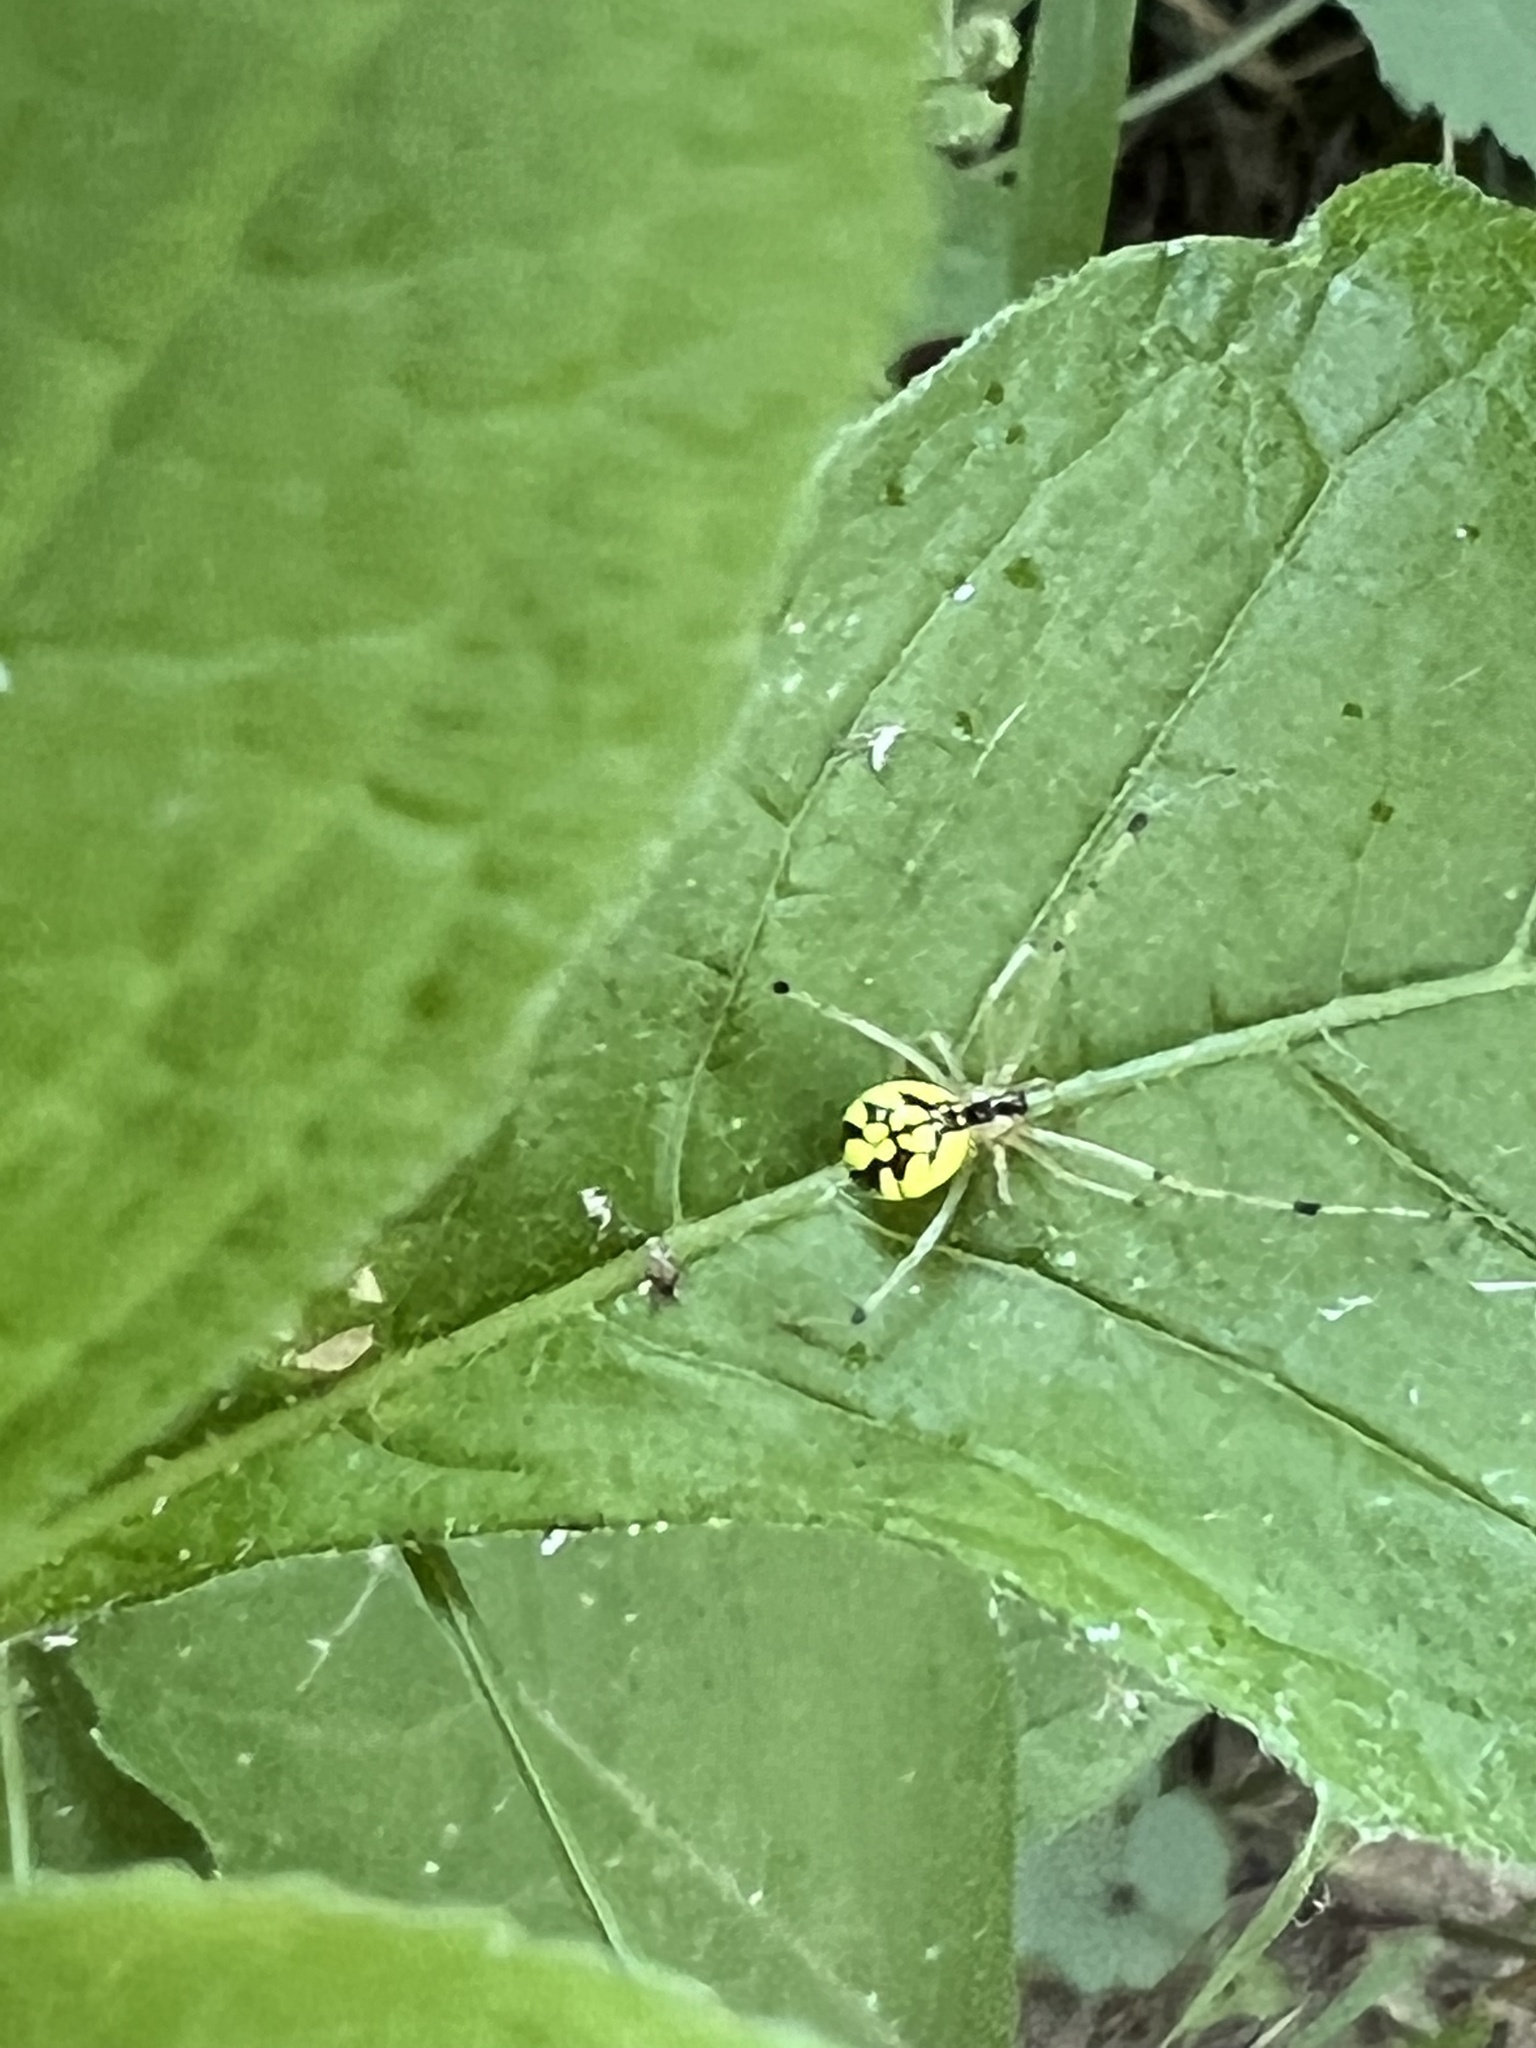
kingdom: Animalia
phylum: Arthropoda
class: Arachnida
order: Araneae
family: Theridiidae
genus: Phylloneta
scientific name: Phylloneta pictipes
